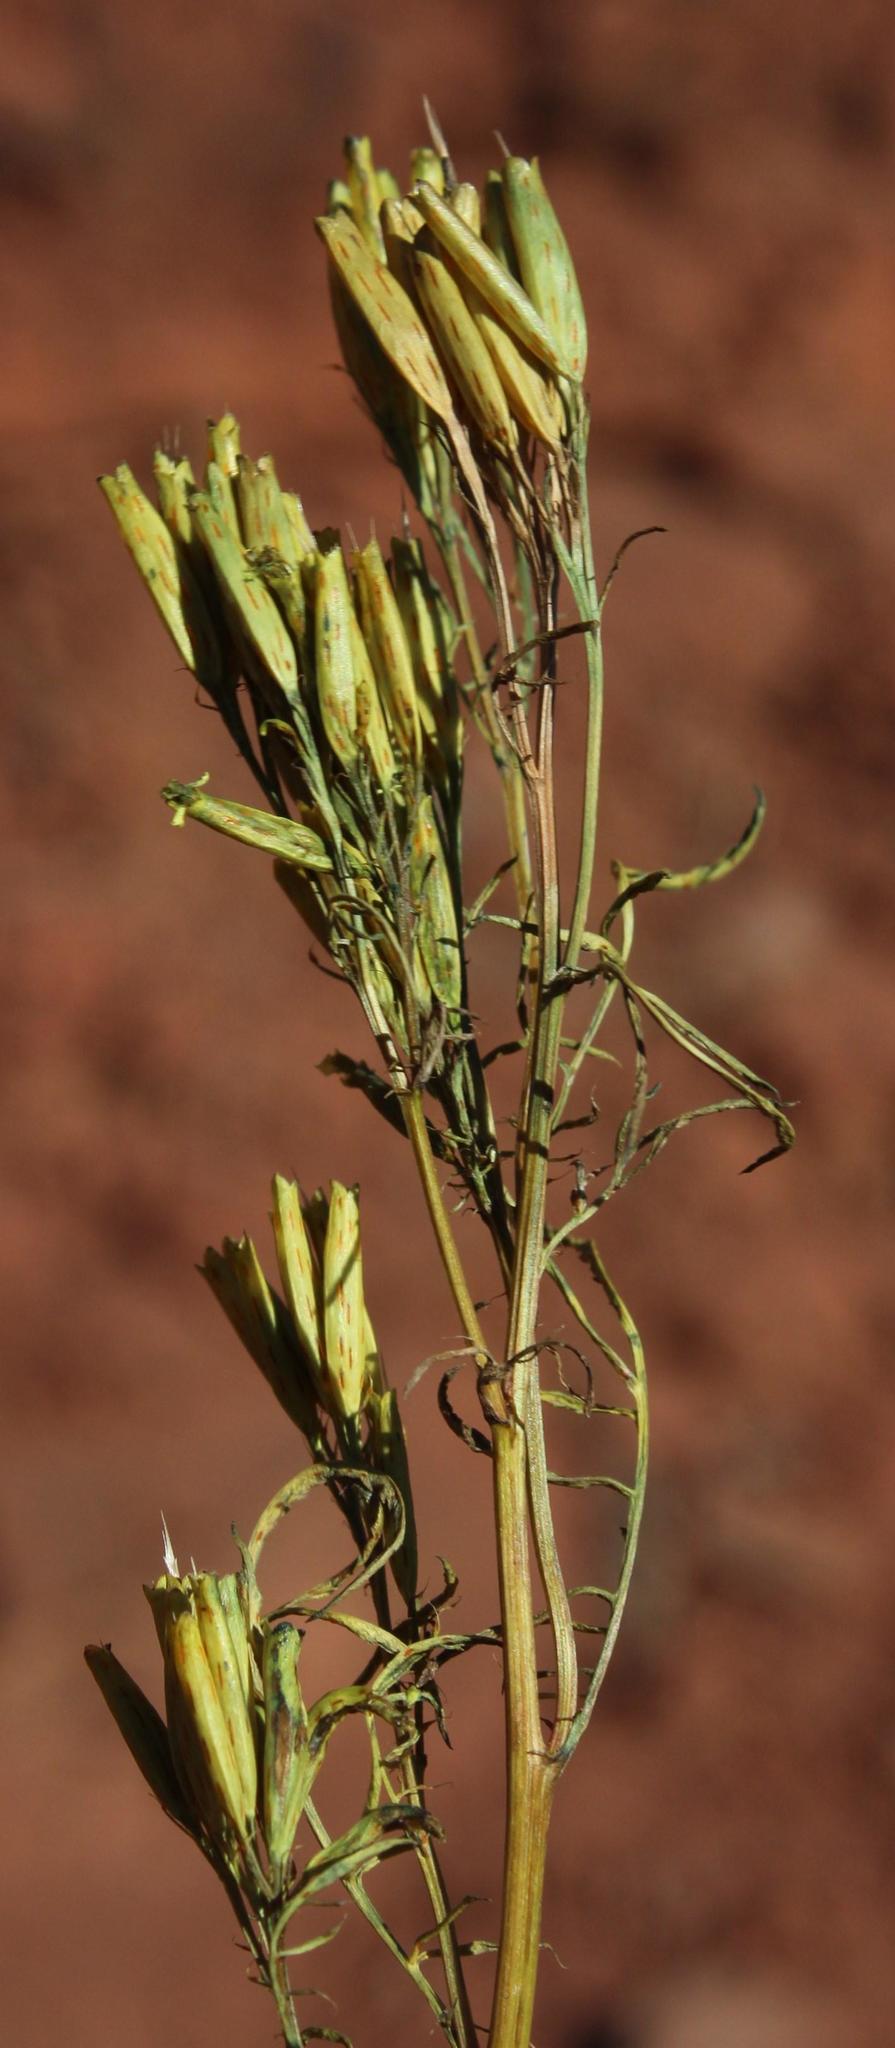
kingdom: Plantae
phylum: Tracheophyta
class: Magnoliopsida
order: Asterales
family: Asteraceae
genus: Tagetes
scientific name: Tagetes minuta
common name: Muster john henry
